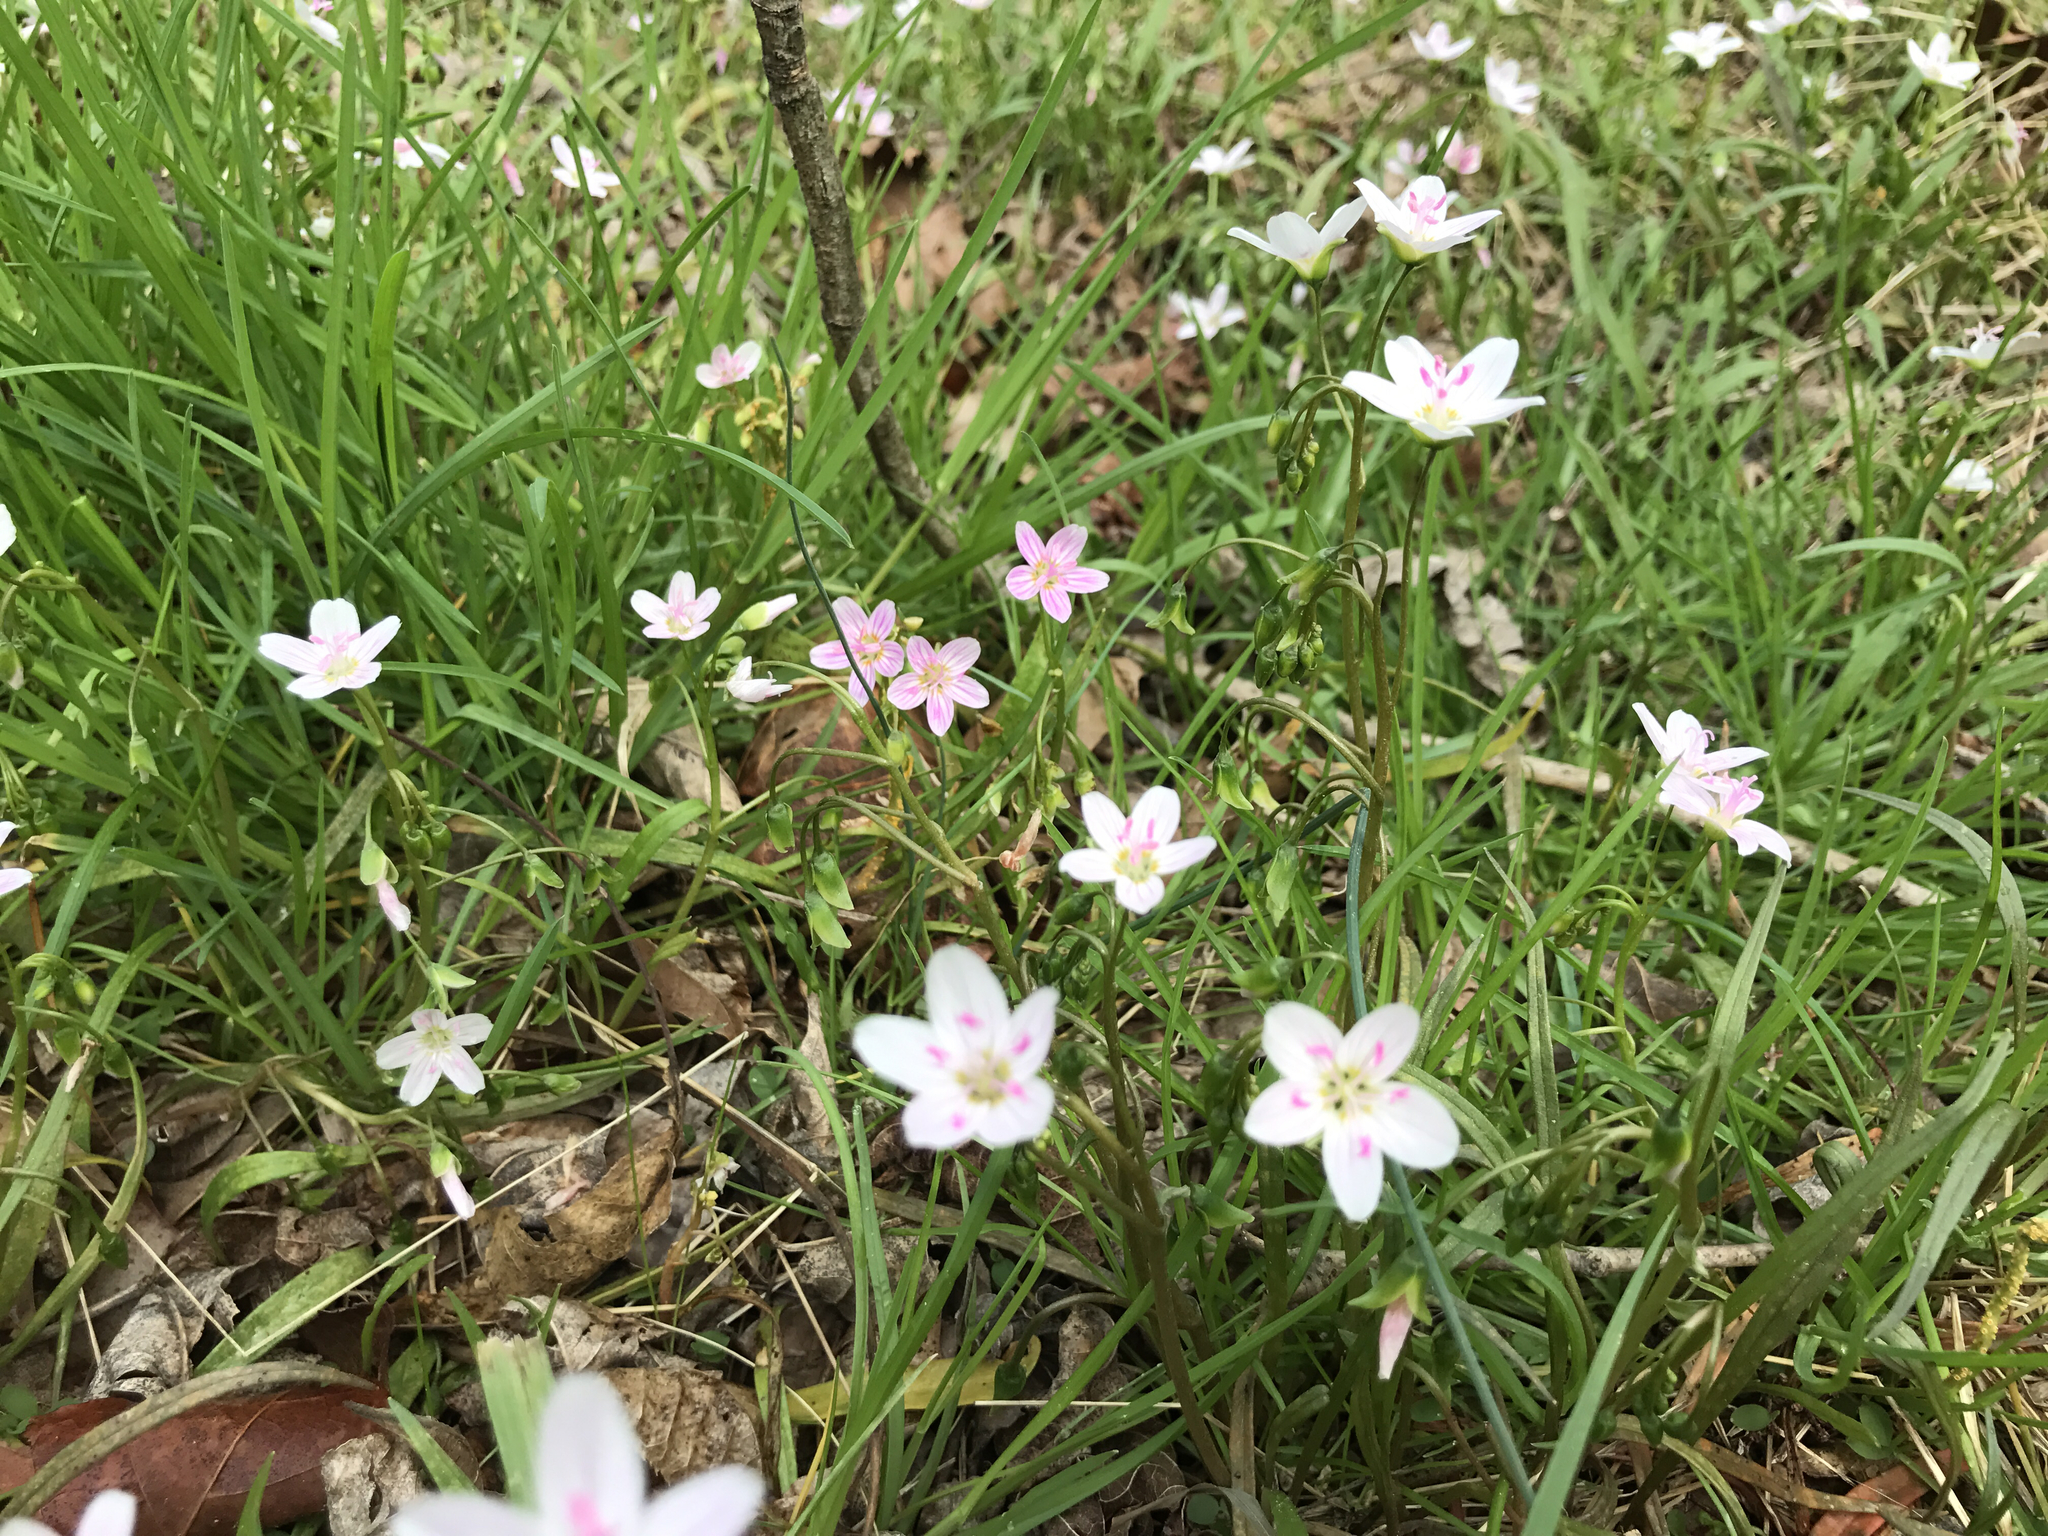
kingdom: Plantae
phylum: Tracheophyta
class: Magnoliopsida
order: Caryophyllales
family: Montiaceae
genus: Claytonia
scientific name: Claytonia virginica
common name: Virginia springbeauty
